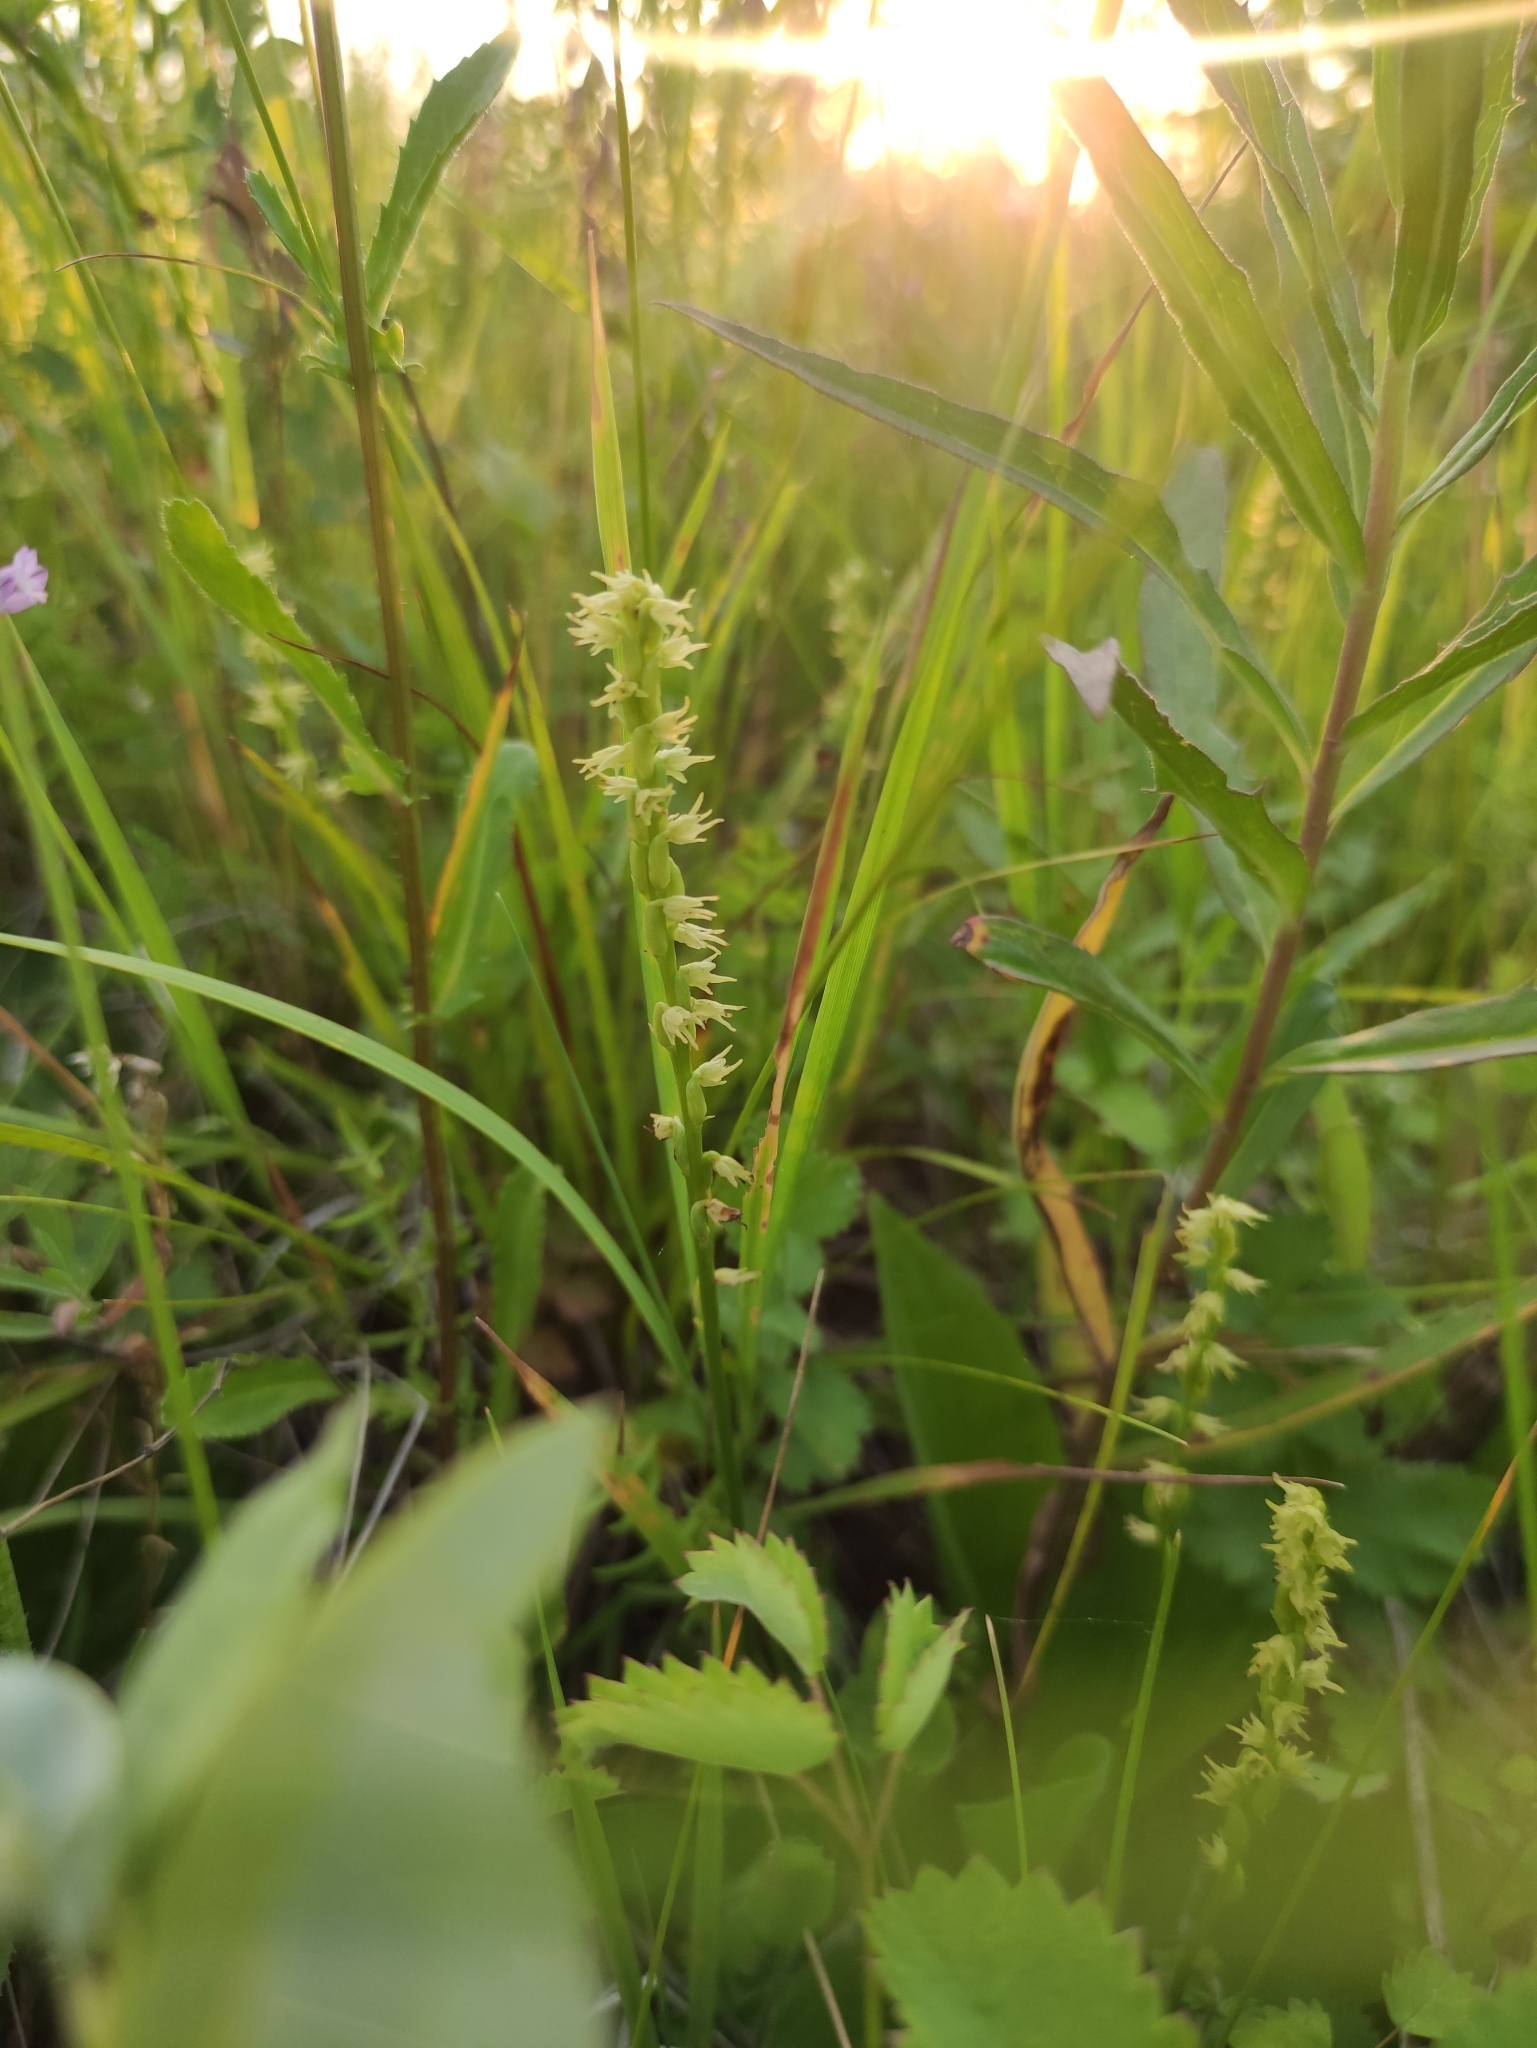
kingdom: Plantae
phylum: Tracheophyta
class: Liliopsida
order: Asparagales
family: Orchidaceae
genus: Herminium
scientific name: Herminium monorchis
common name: Musk orchid
